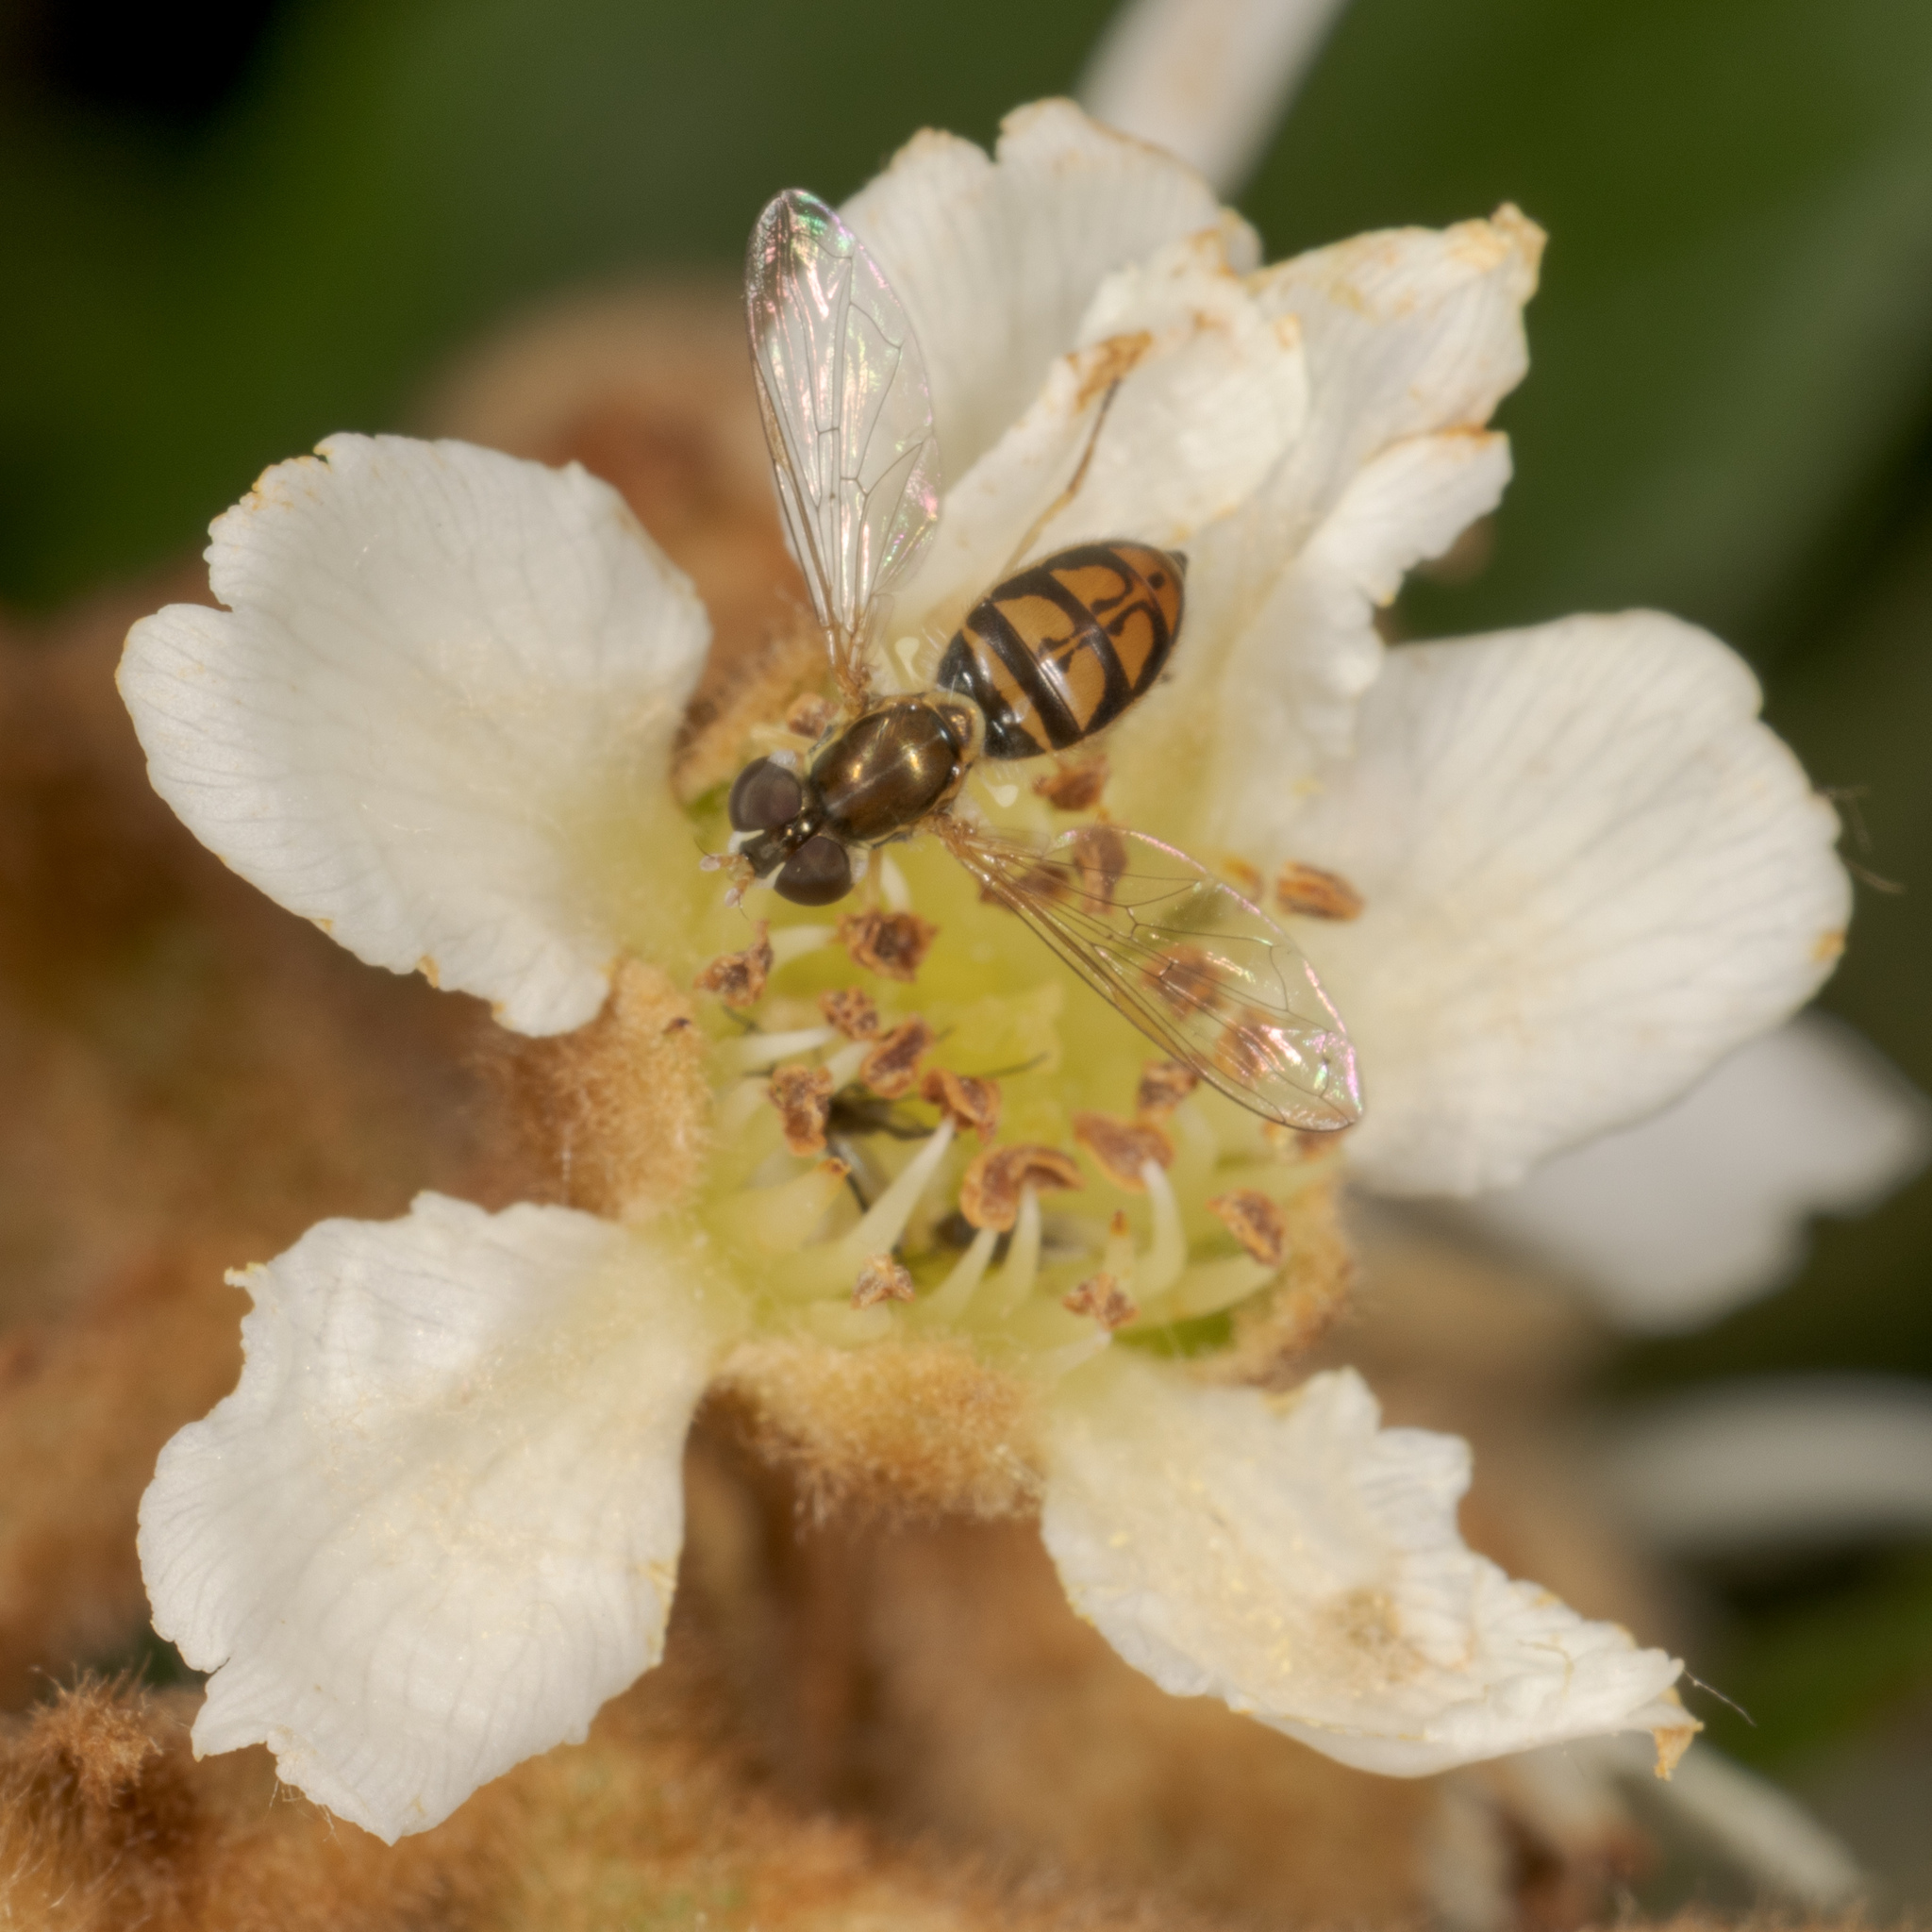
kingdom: Animalia
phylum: Arthropoda
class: Insecta
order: Diptera
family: Syrphidae
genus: Toxomerus
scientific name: Toxomerus marginatus
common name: Syrphid fly
